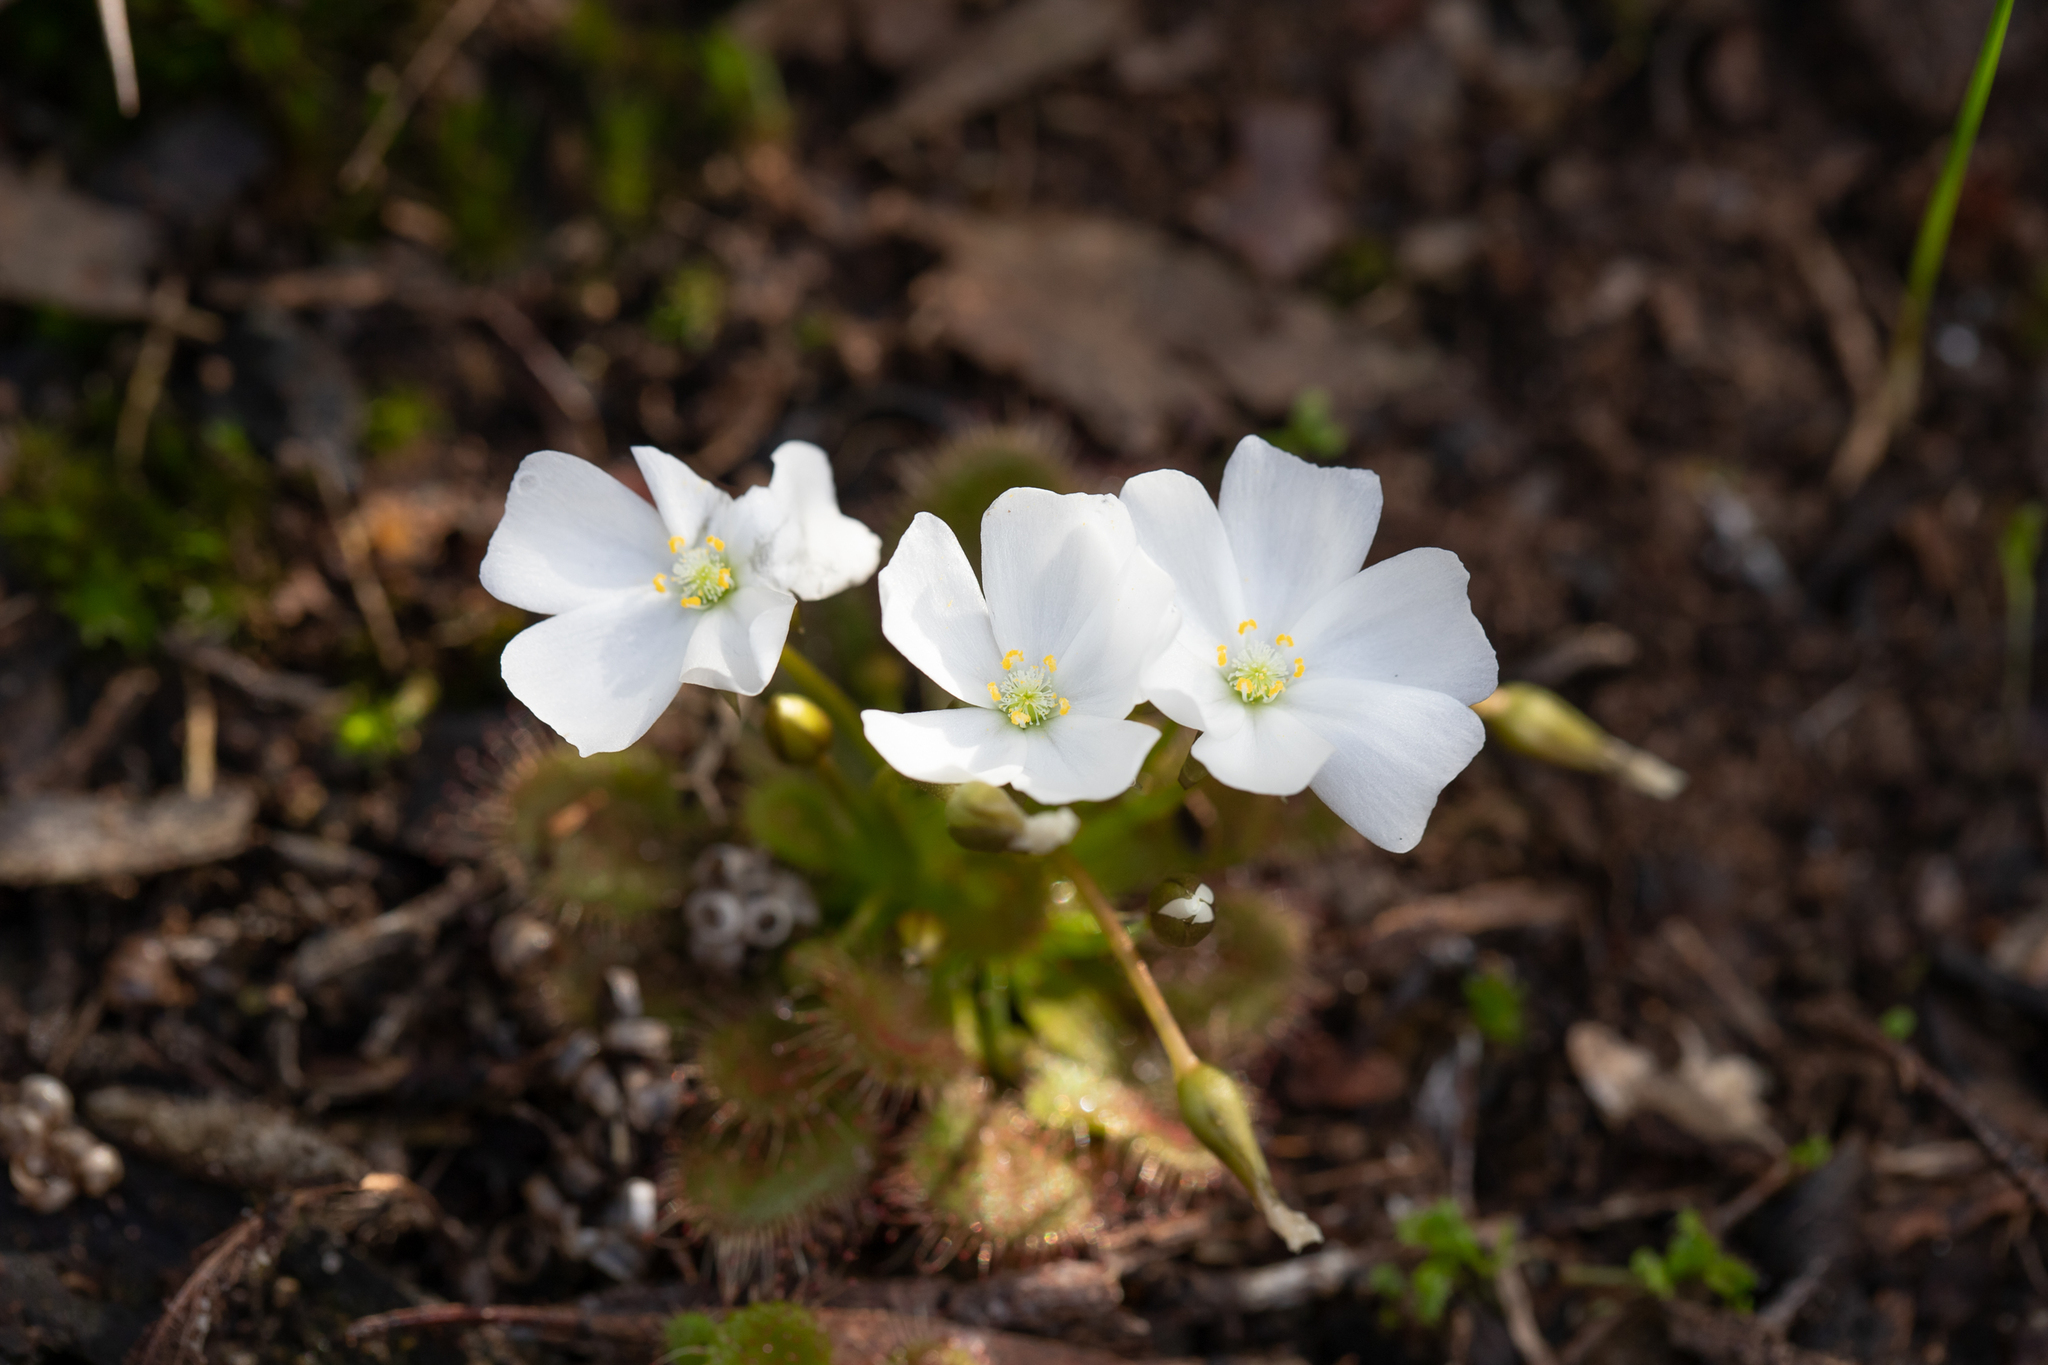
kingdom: Plantae
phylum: Tracheophyta
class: Magnoliopsida
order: Caryophyllales
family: Droseraceae
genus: Drosera
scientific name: Drosera whittakeri
